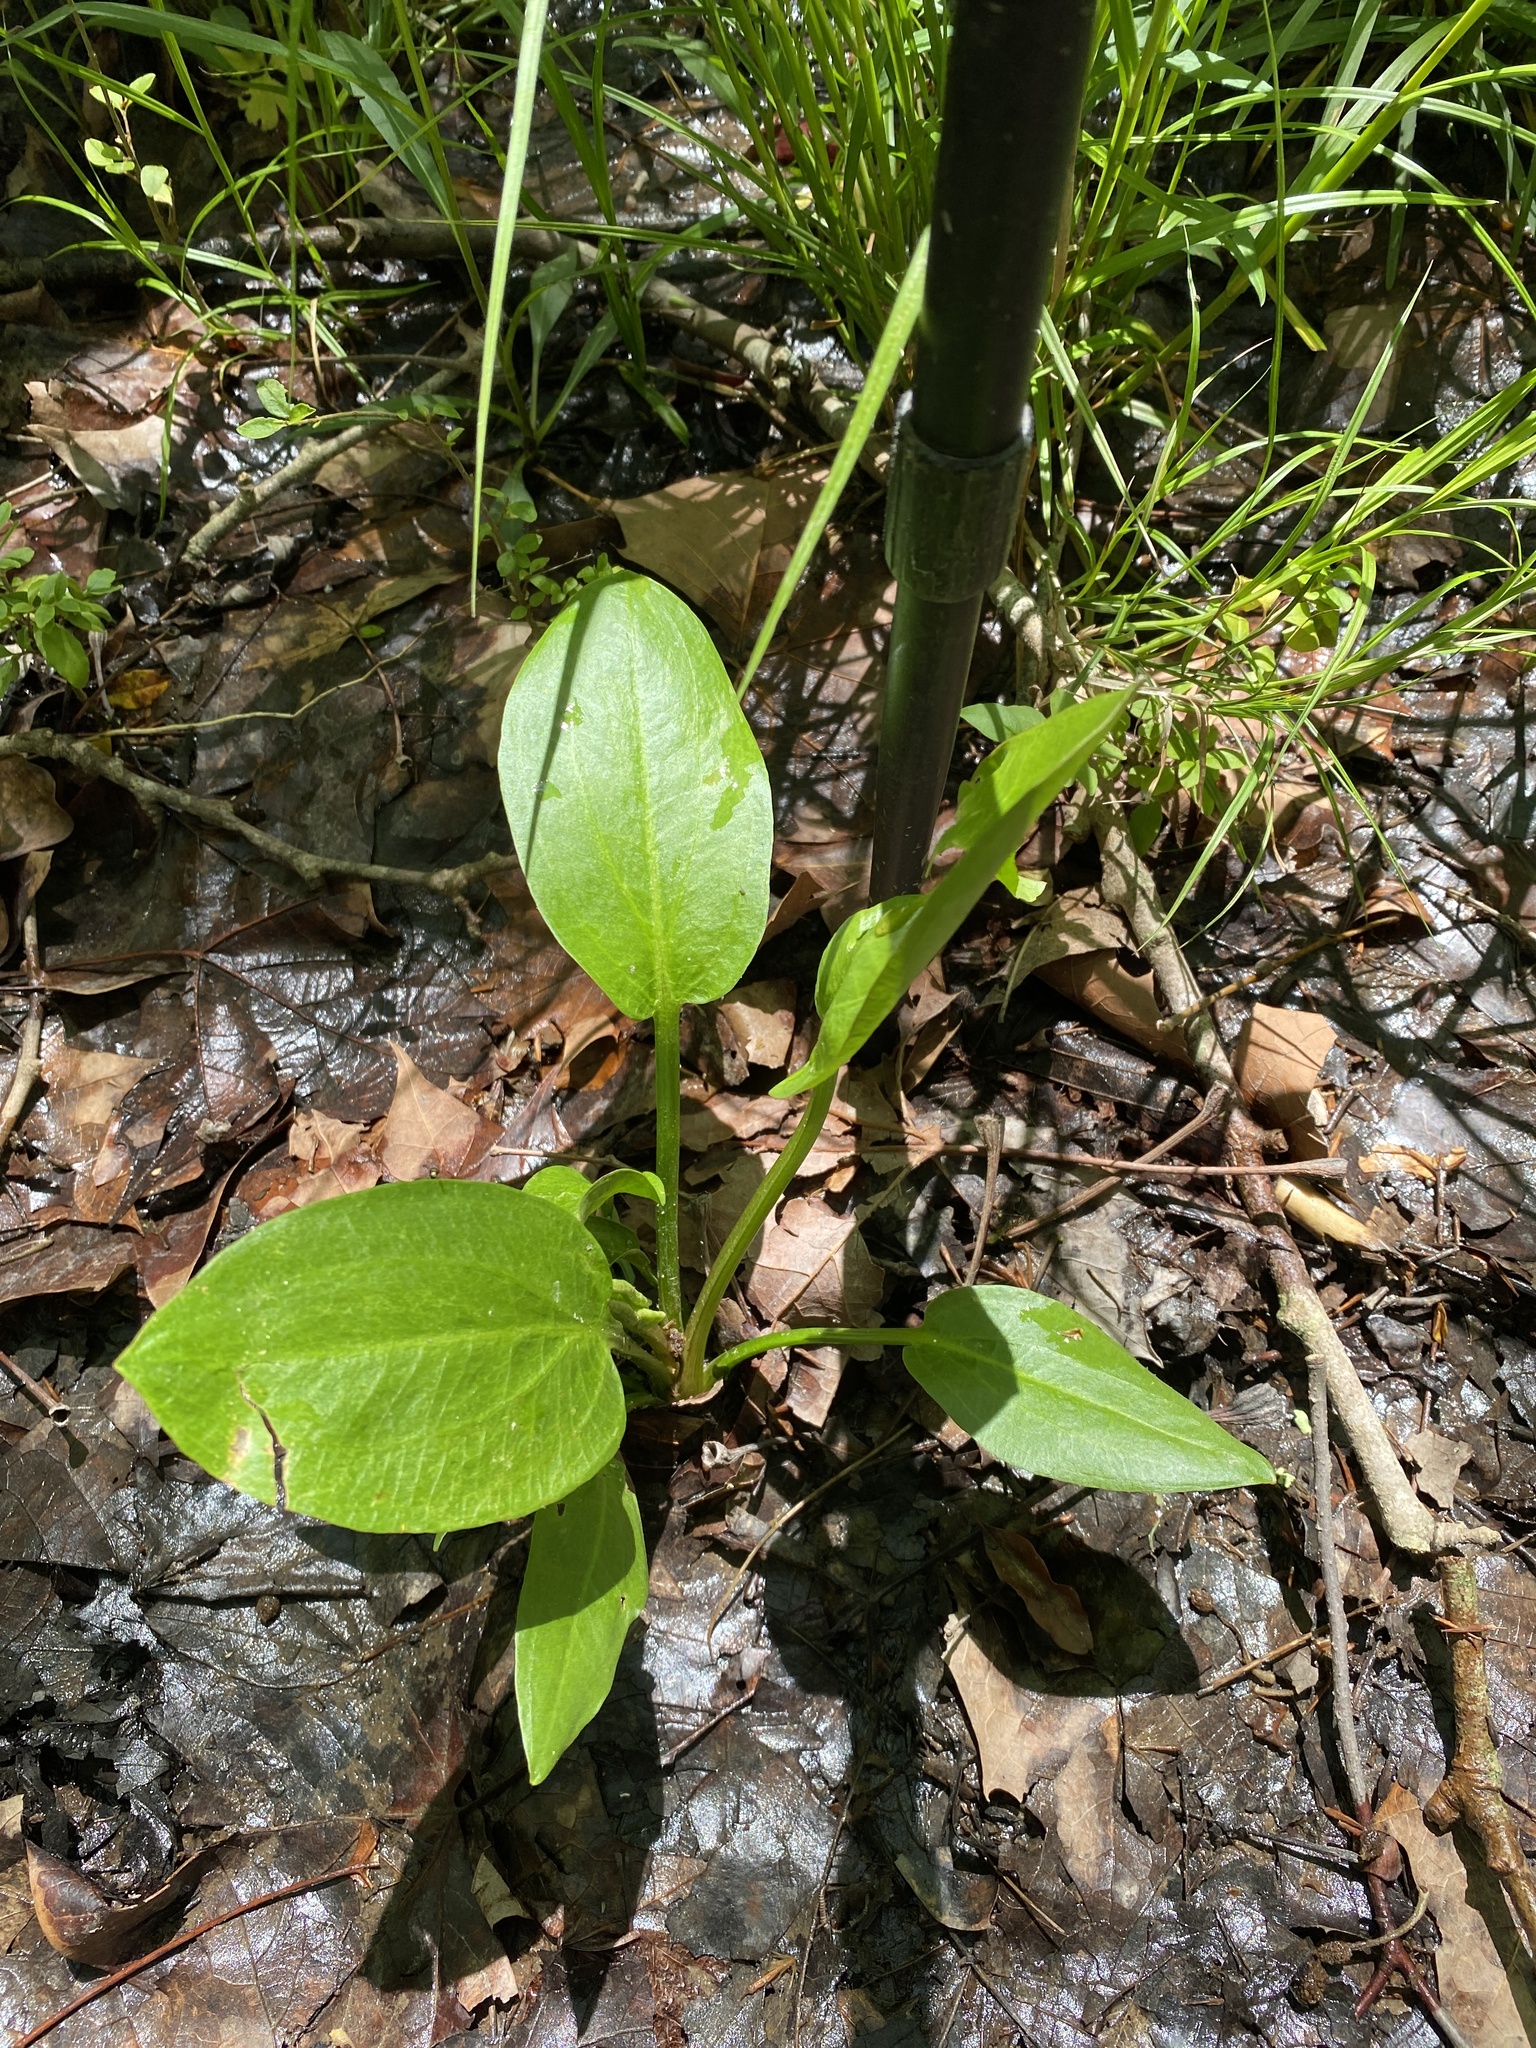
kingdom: Plantae
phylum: Tracheophyta
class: Liliopsida
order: Alismatales
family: Alismataceae
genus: Alisma
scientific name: Alisma subcordatum
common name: Southern water-plantain
